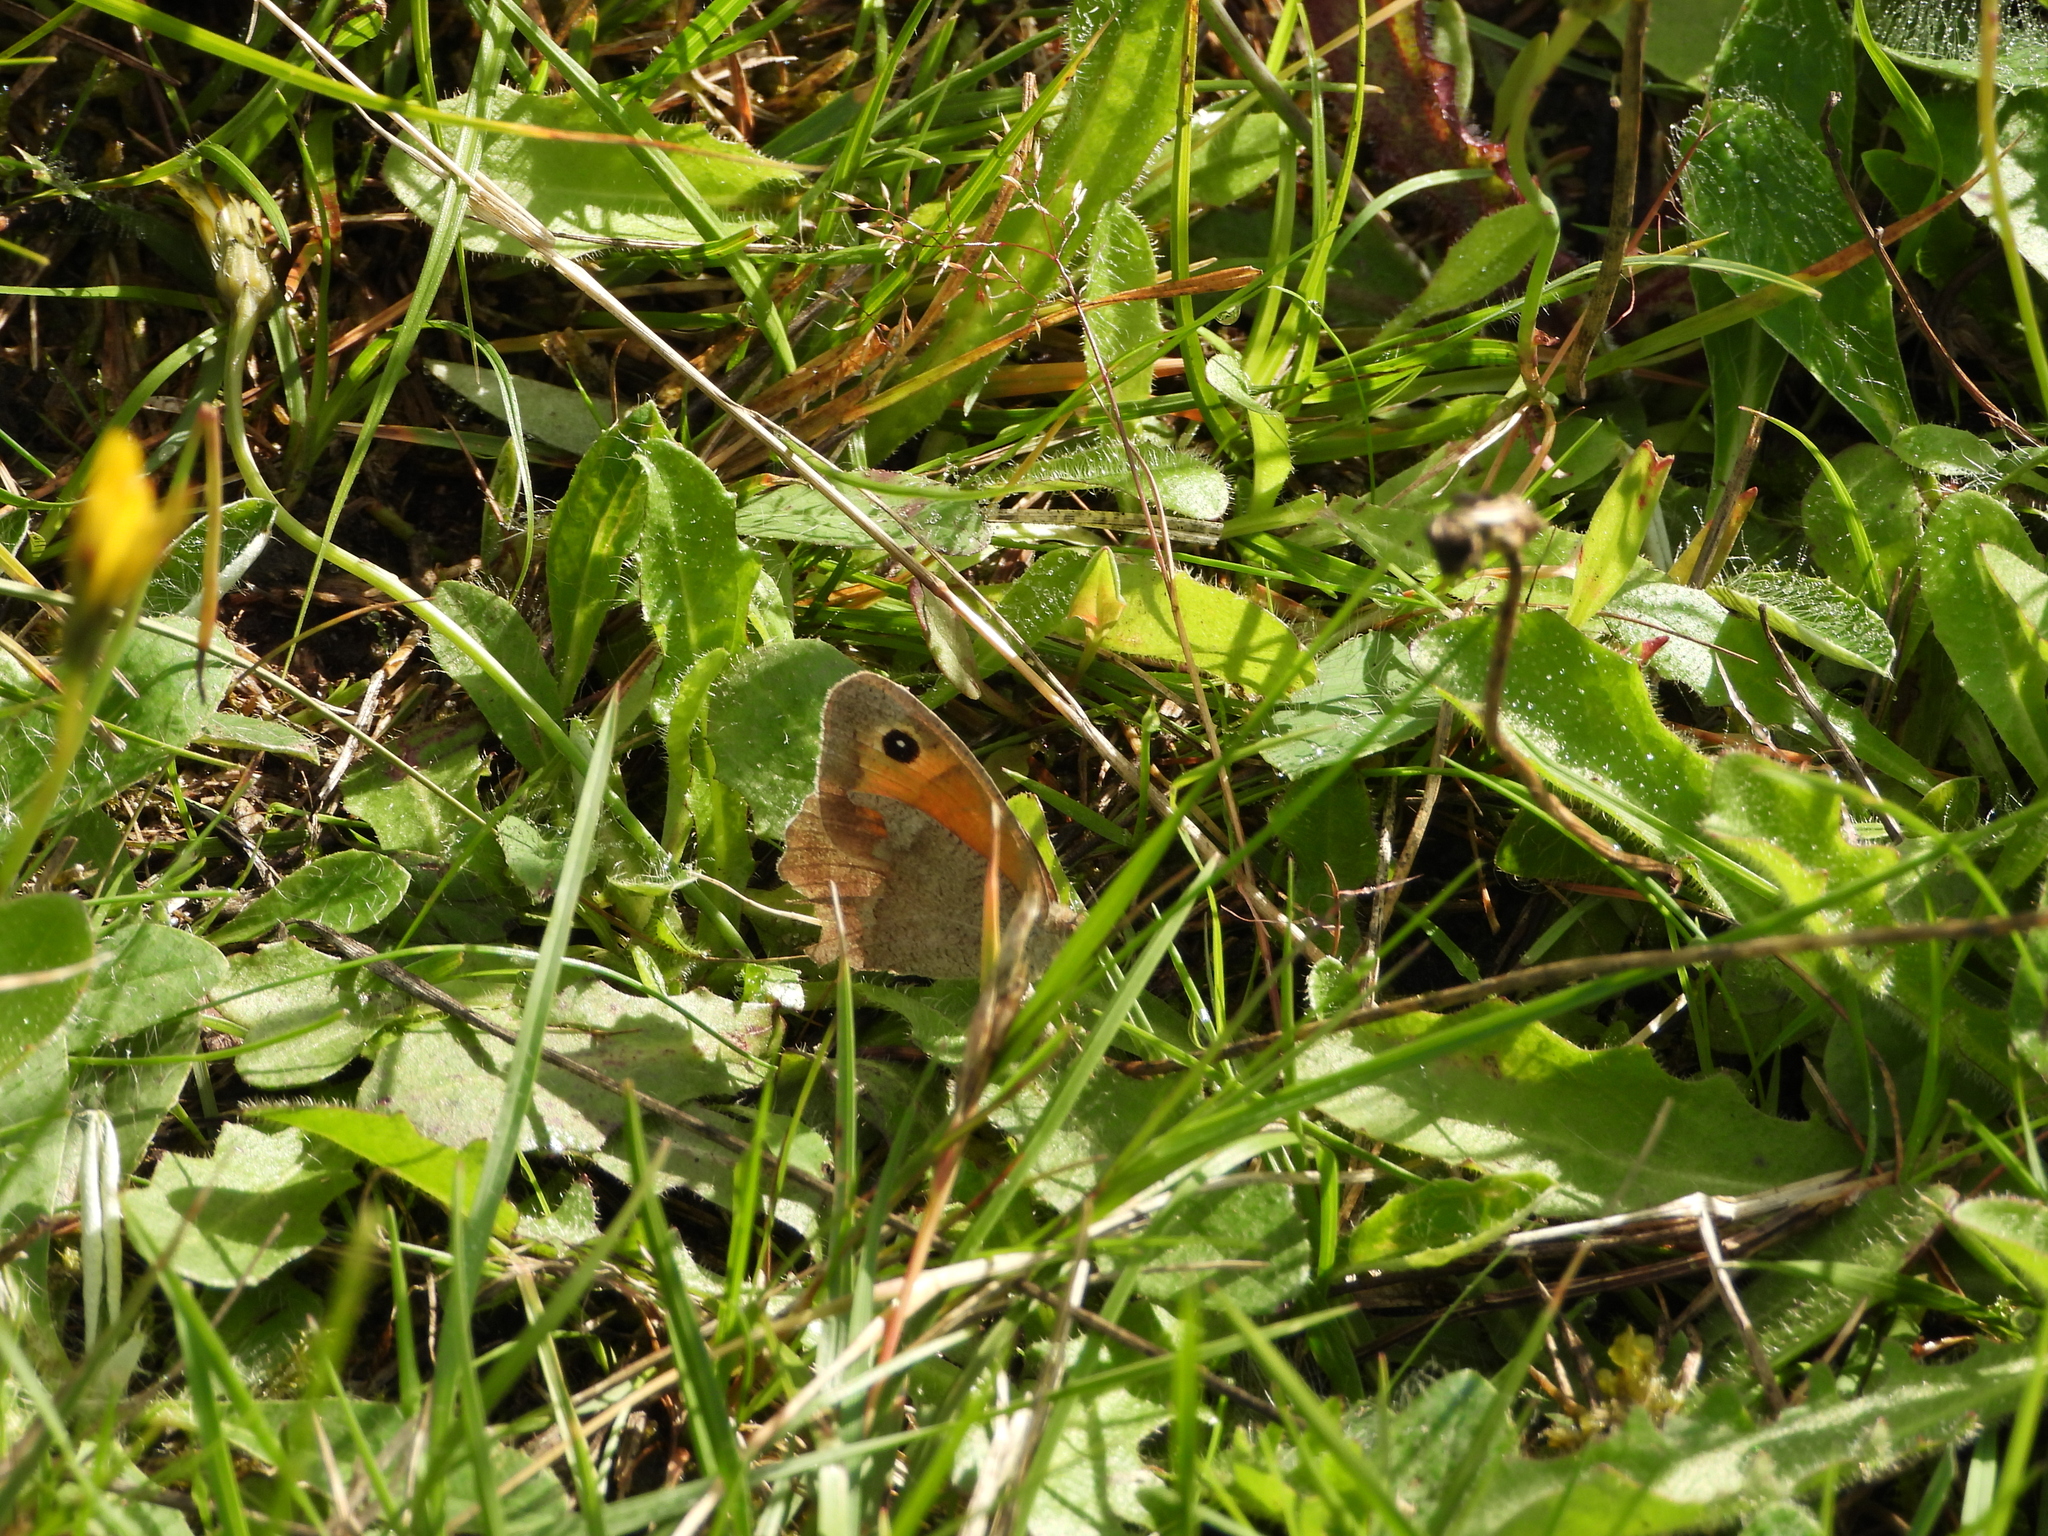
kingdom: Animalia
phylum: Arthropoda
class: Insecta
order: Lepidoptera
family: Nymphalidae
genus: Maniola
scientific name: Maniola jurtina
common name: Meadow brown
